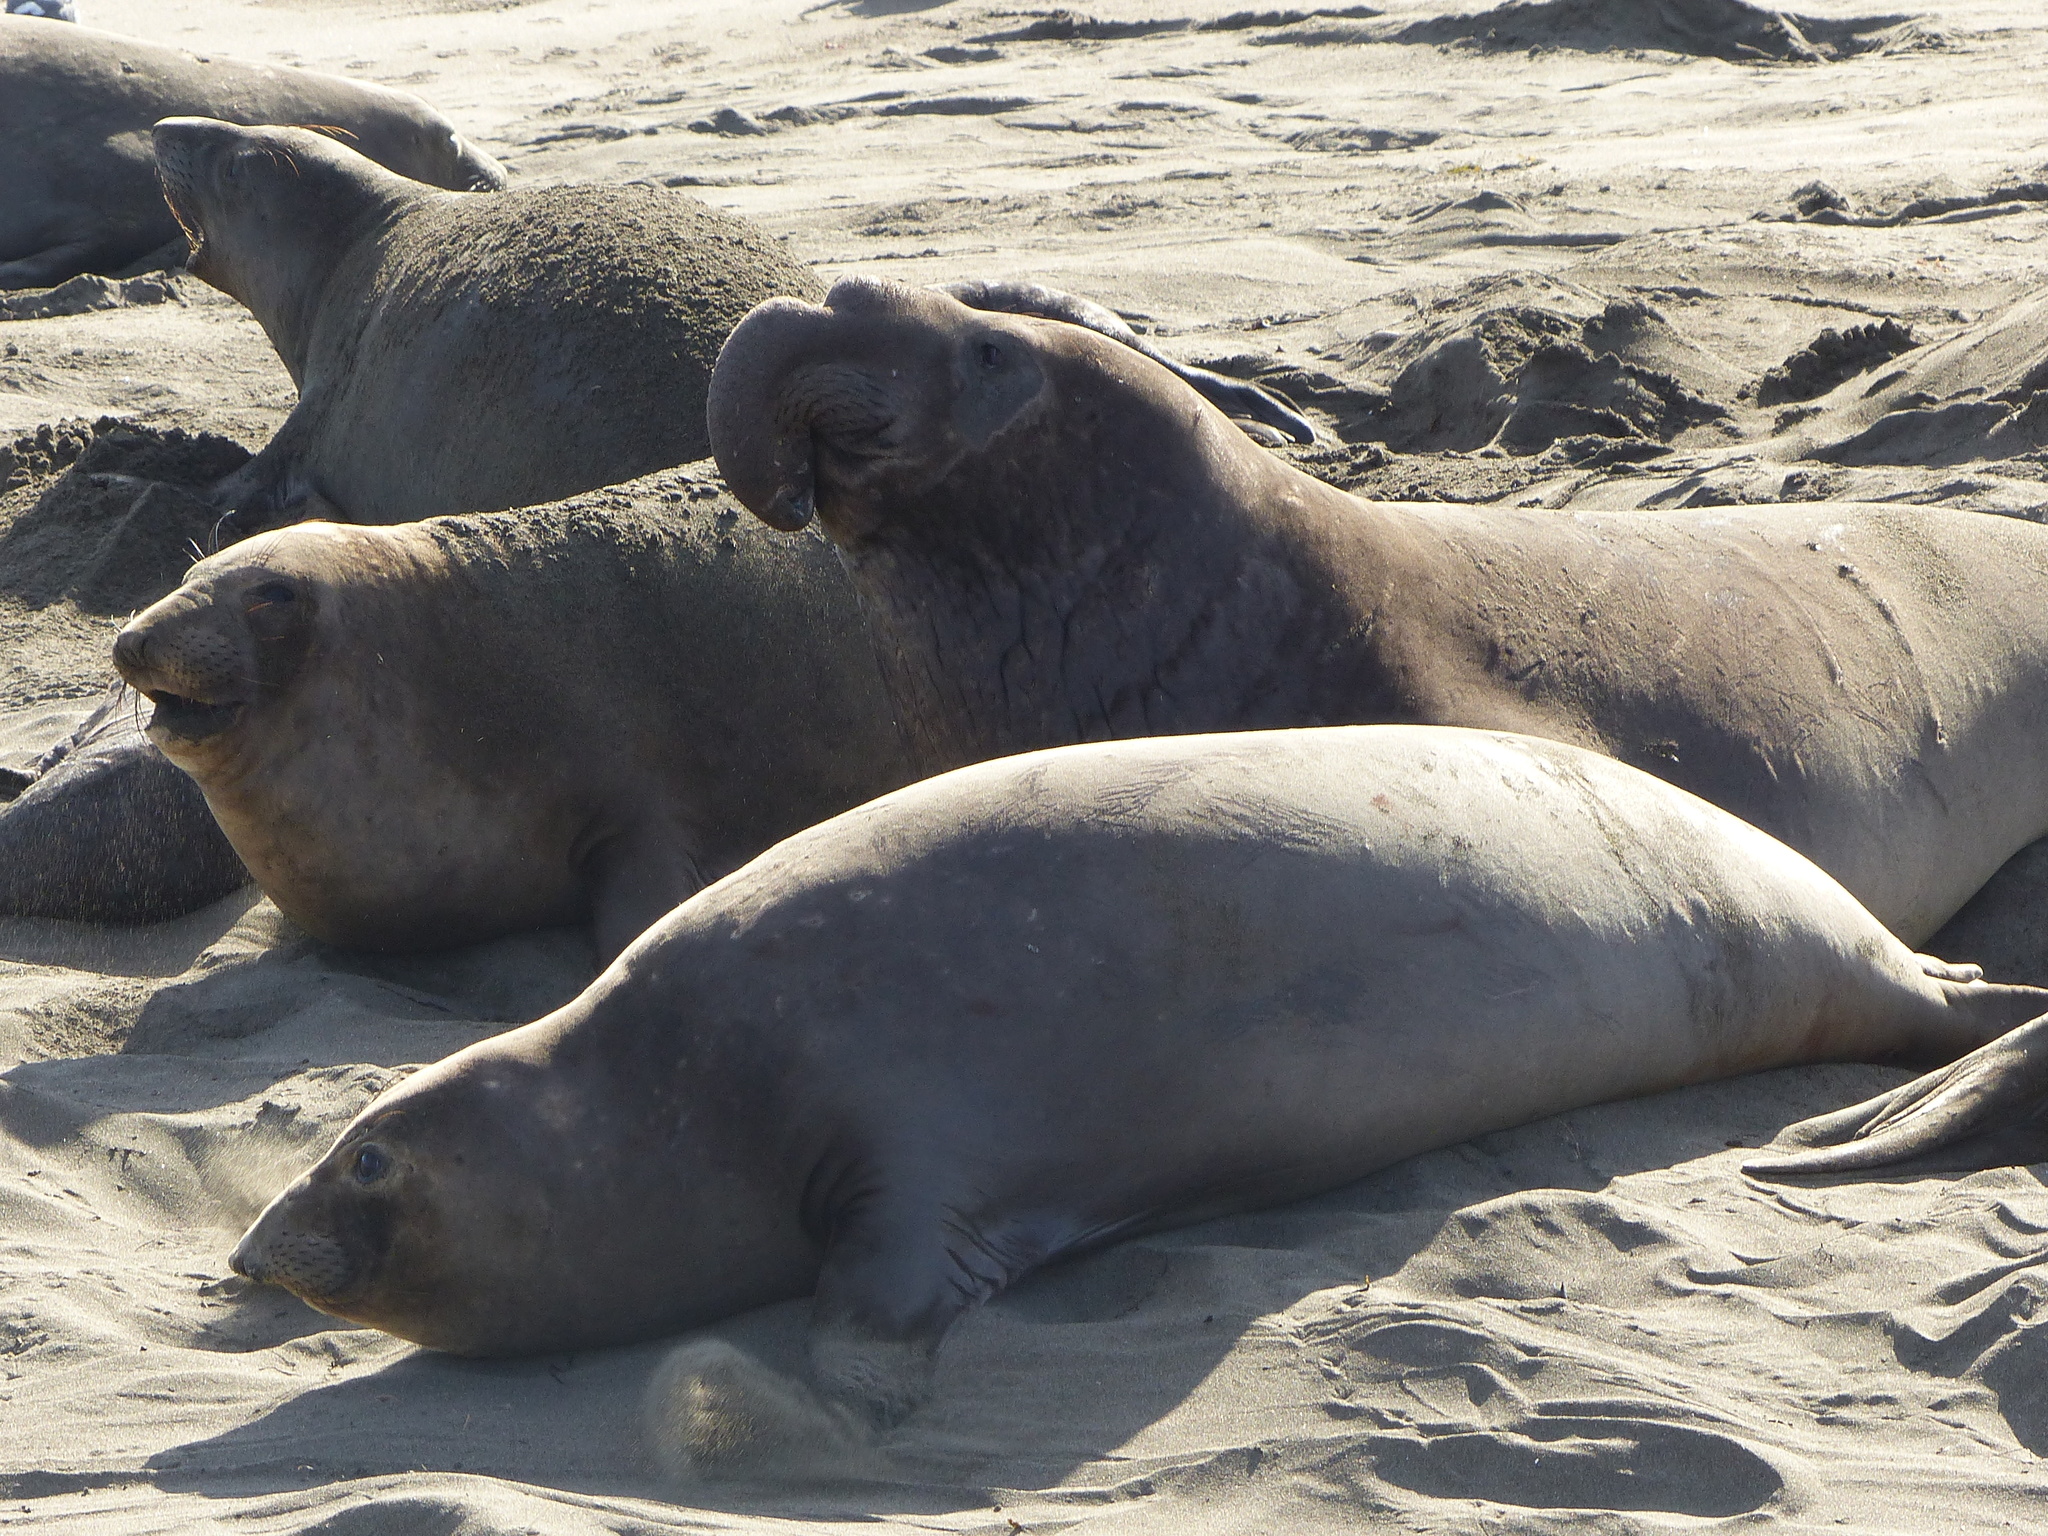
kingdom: Animalia
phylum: Chordata
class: Mammalia
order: Carnivora
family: Phocidae
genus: Mirounga
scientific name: Mirounga angustirostris
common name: Northern elephant seal
